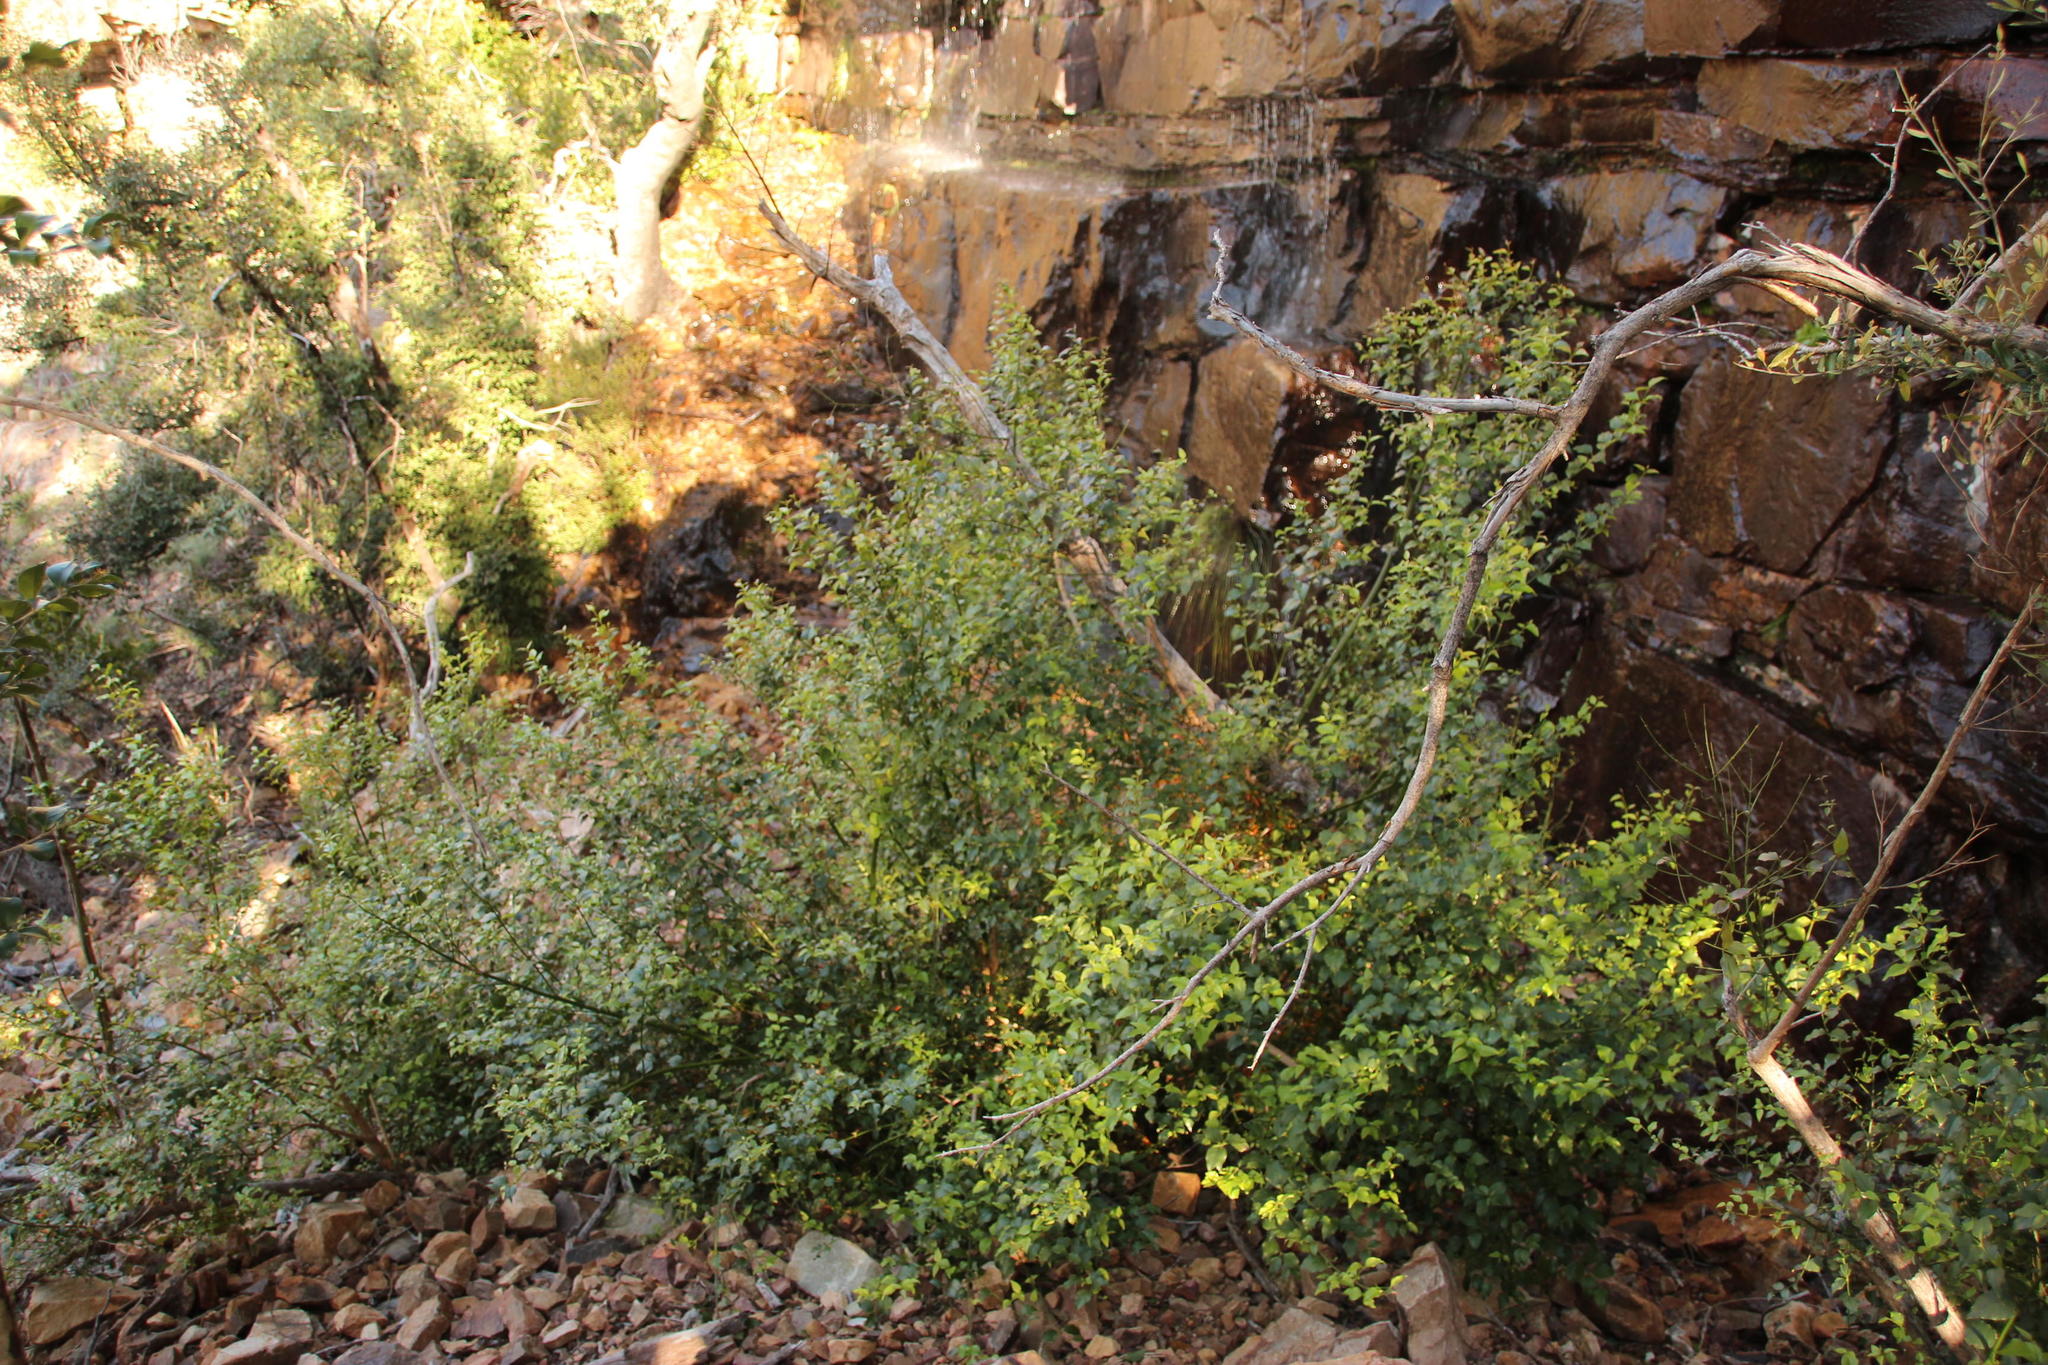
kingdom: Plantae
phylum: Tracheophyta
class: Magnoliopsida
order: Lamiales
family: Stilbaceae
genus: Halleria
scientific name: Halleria lucida
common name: Tree fuschia
